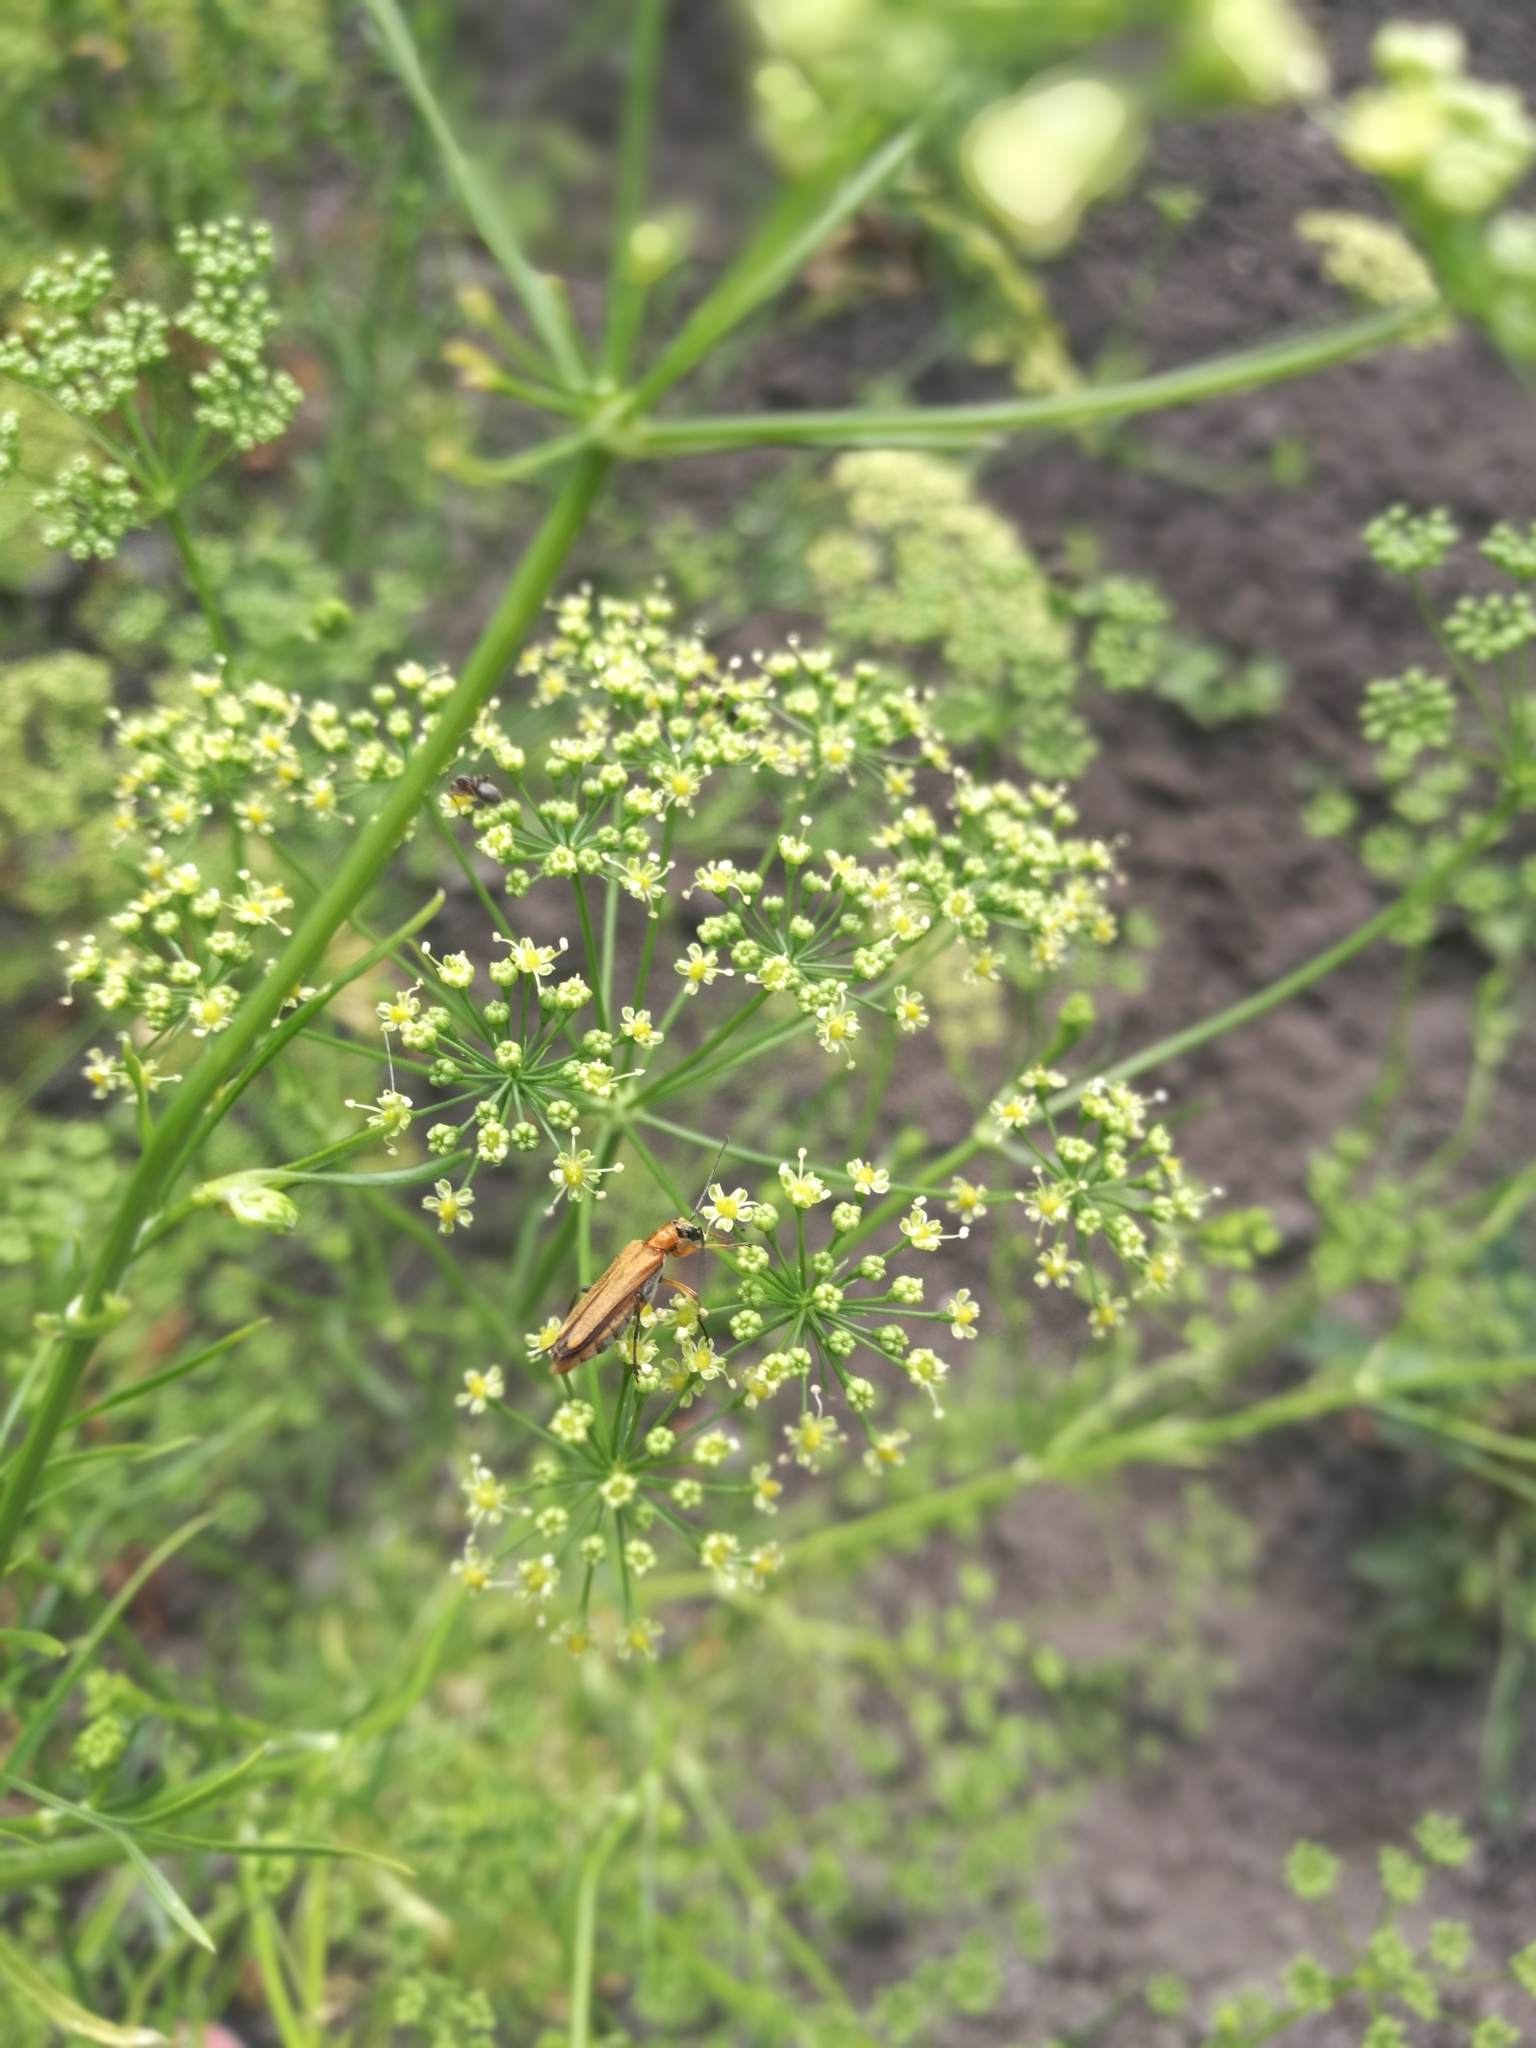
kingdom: Animalia
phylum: Arthropoda
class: Insecta
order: Coleoptera
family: Oedemeridae
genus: Oedemera
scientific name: Oedemera podagrariae
